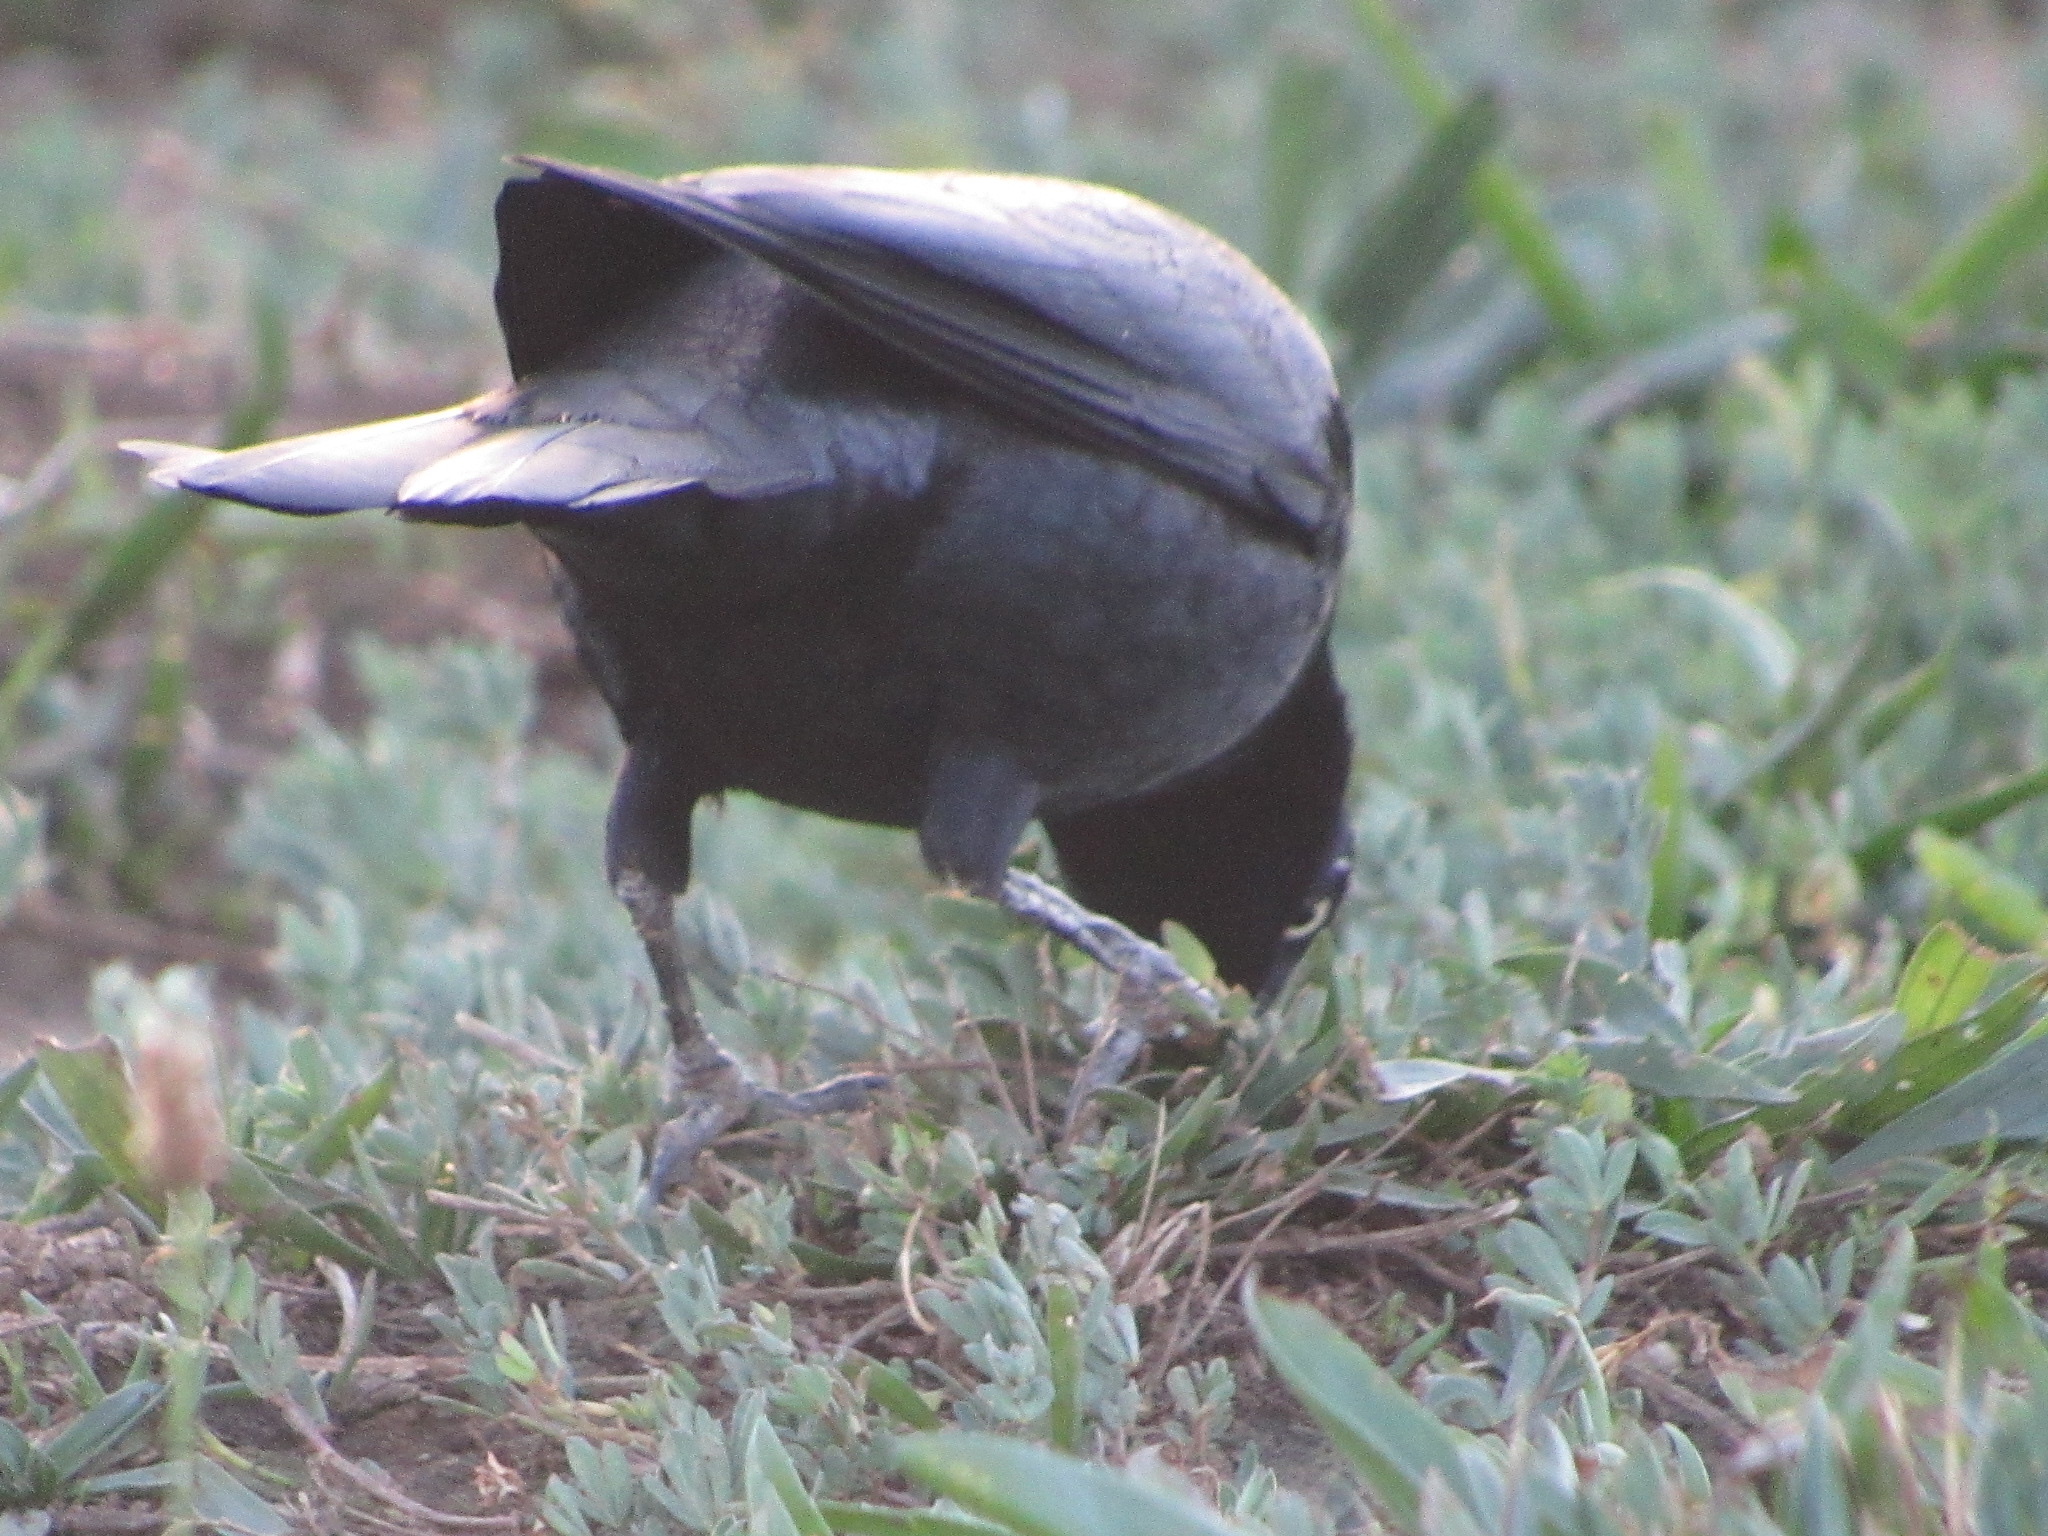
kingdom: Animalia
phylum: Chordata
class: Aves
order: Passeriformes
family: Icteridae
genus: Euphagus
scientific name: Euphagus cyanocephalus
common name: Brewer's blackbird
